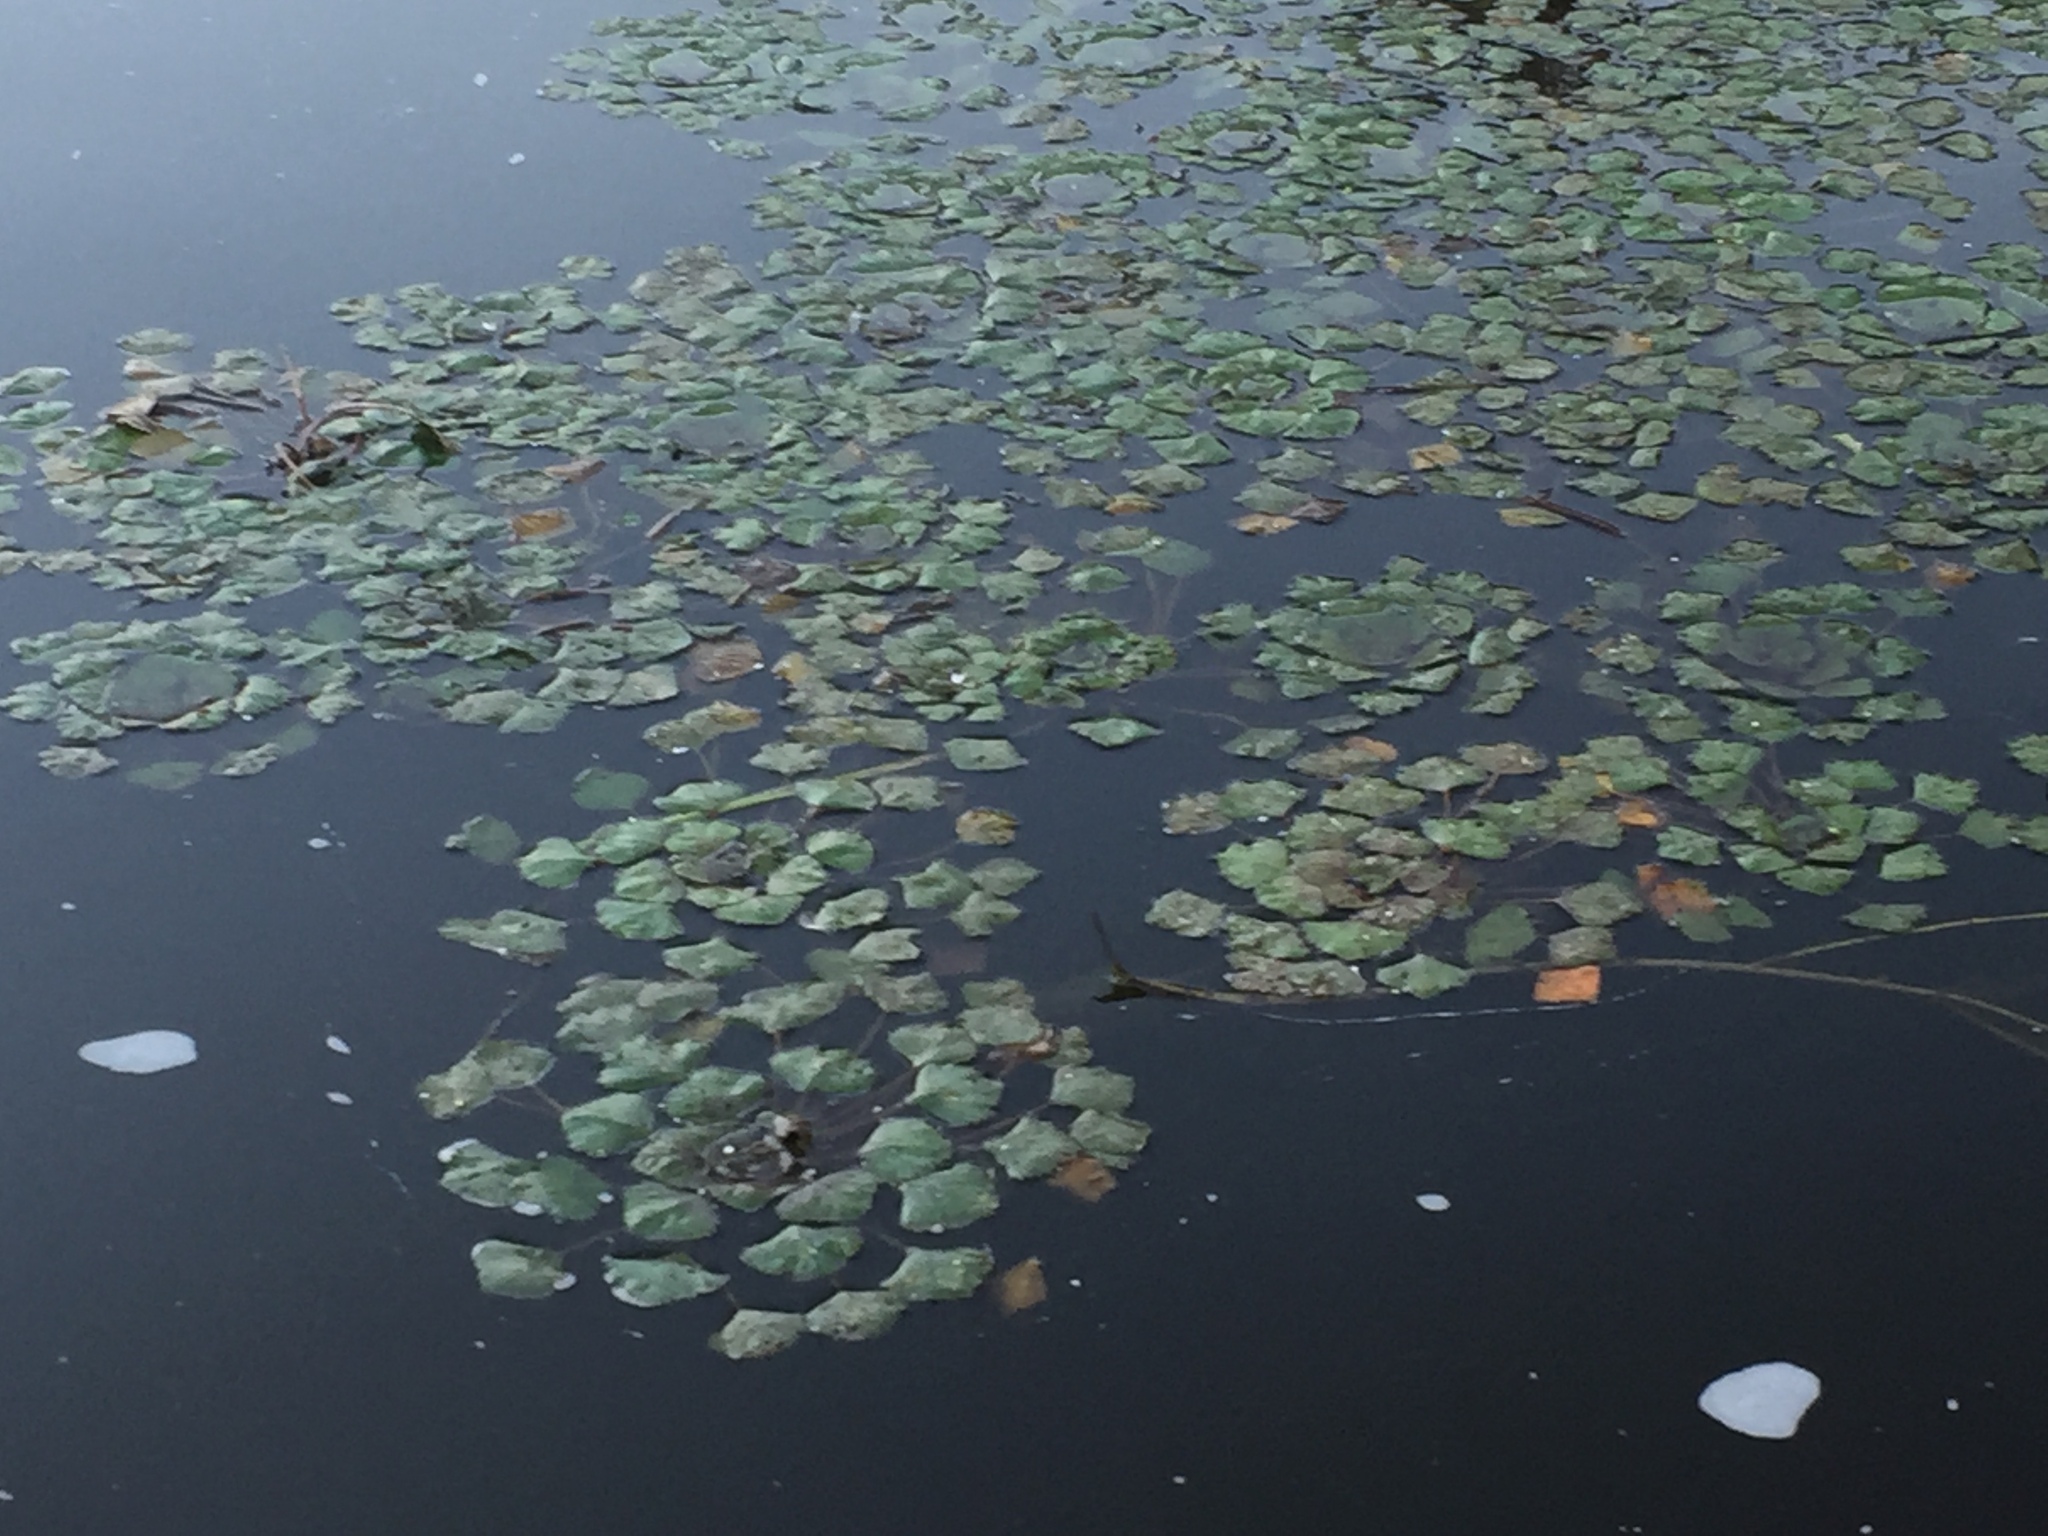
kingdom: Plantae
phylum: Tracheophyta
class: Magnoliopsida
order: Myrtales
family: Lythraceae
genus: Trapa
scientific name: Trapa natans
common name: Water chestnut
